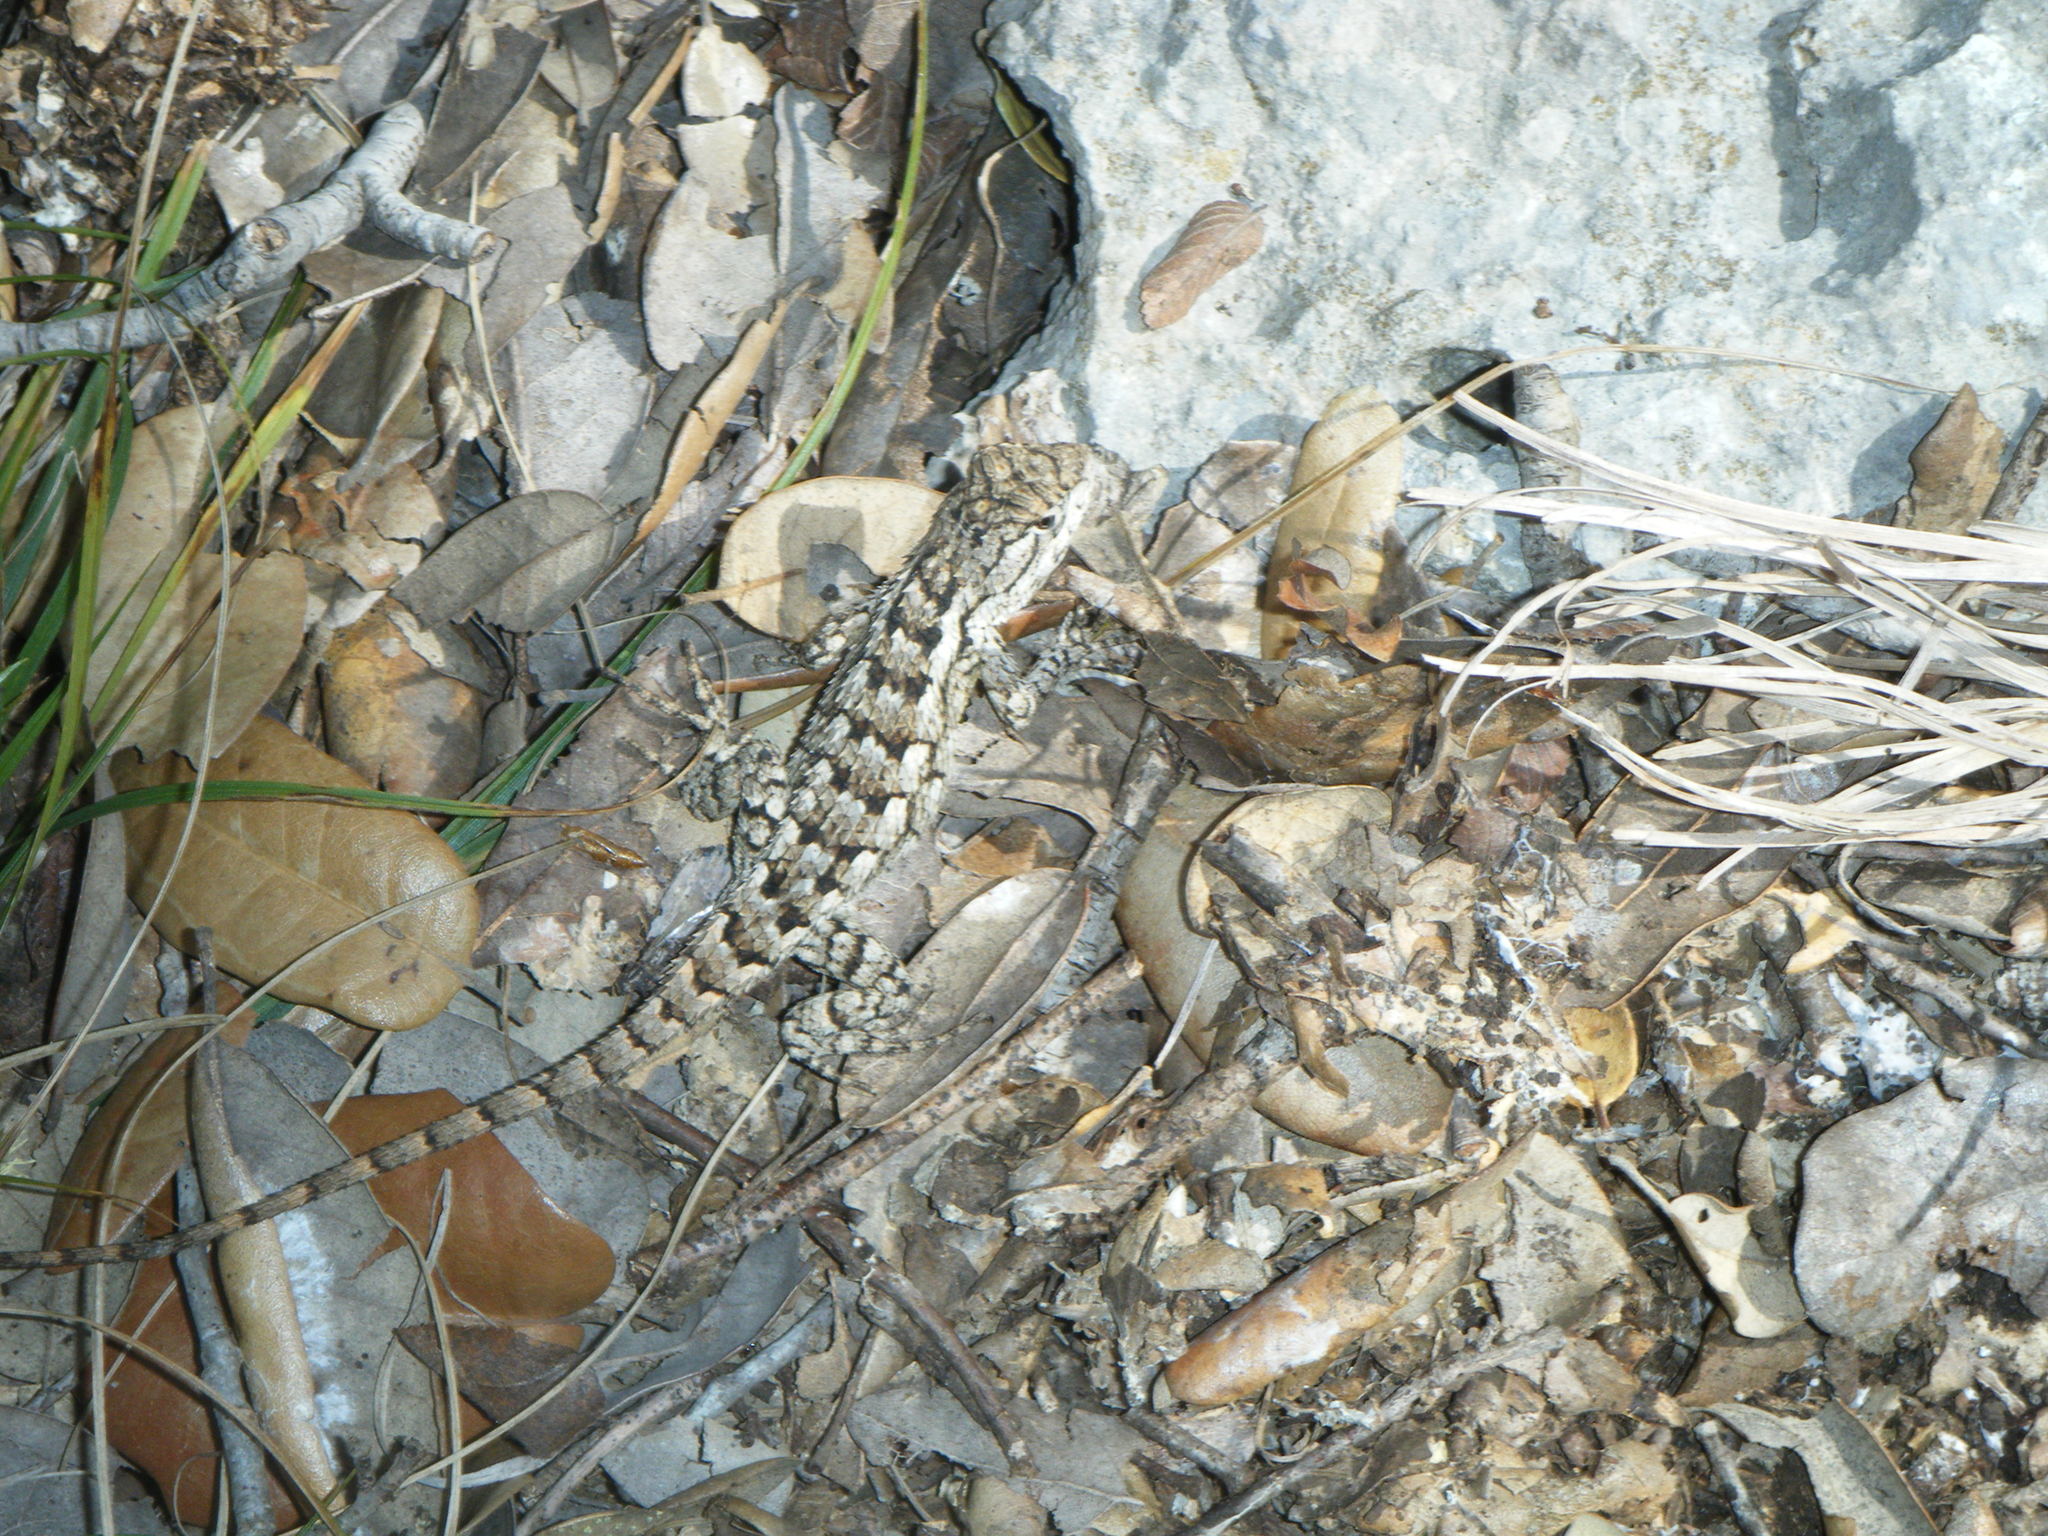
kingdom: Animalia
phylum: Chordata
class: Squamata
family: Phrynosomatidae
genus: Sceloporus
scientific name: Sceloporus olivaceus
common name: Texas spiny lizard
